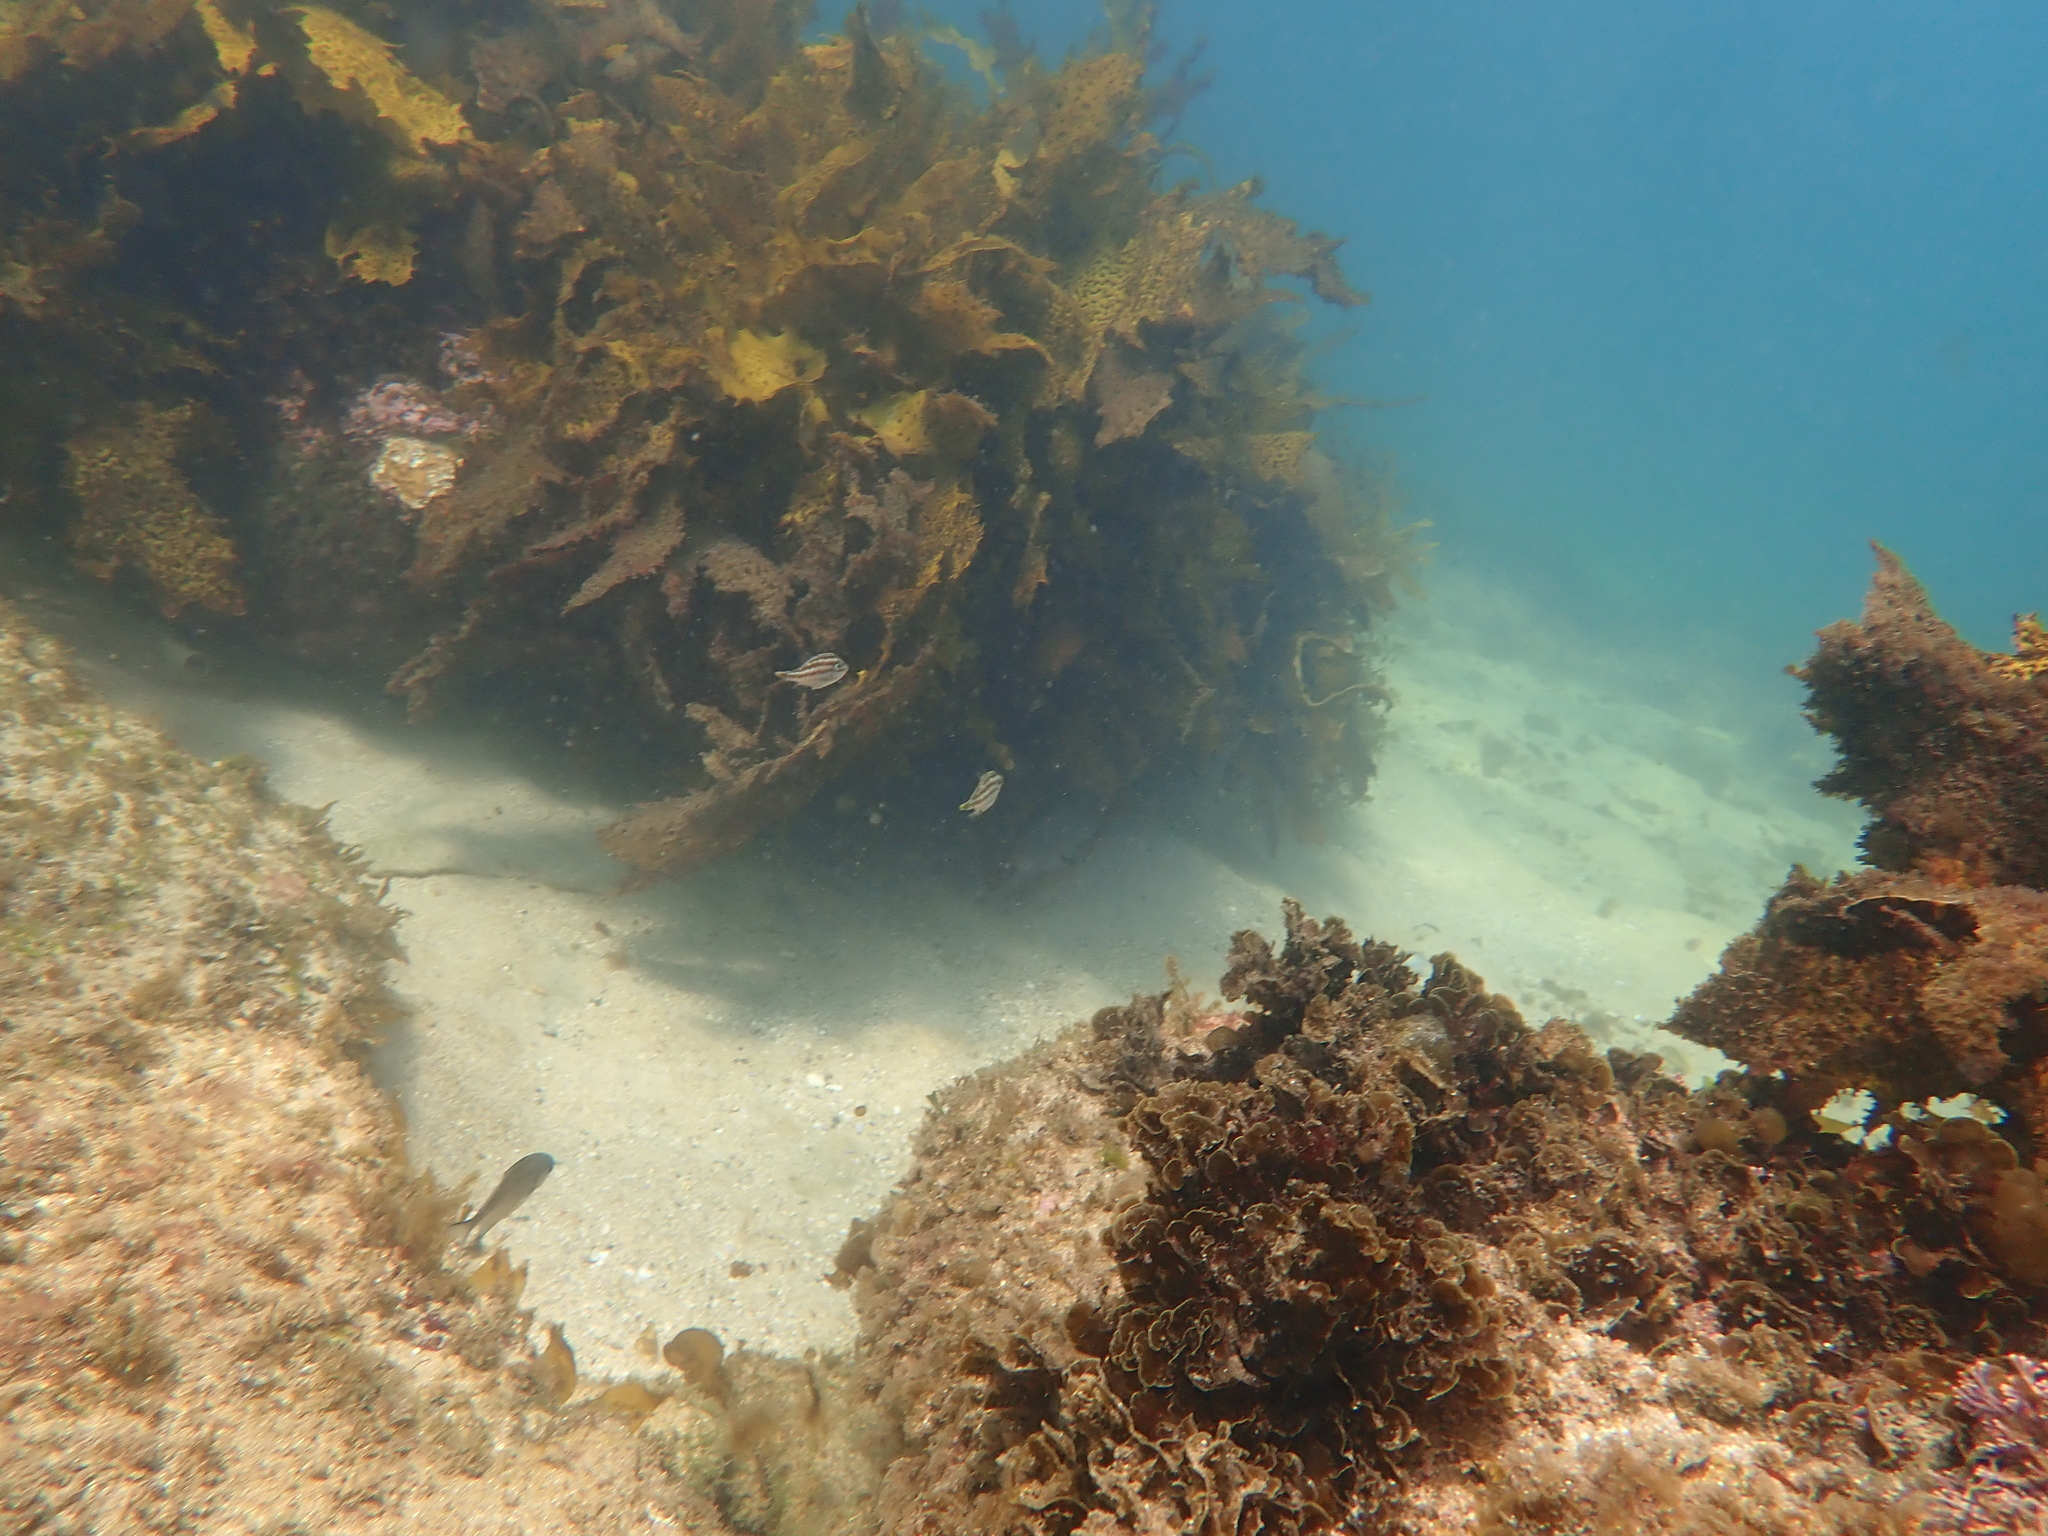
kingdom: Animalia
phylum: Chordata
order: Tetraodontiformes
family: Monacanthidae
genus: Nelusetta
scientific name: Nelusetta ayraud
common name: Chinaman leatherjacket
